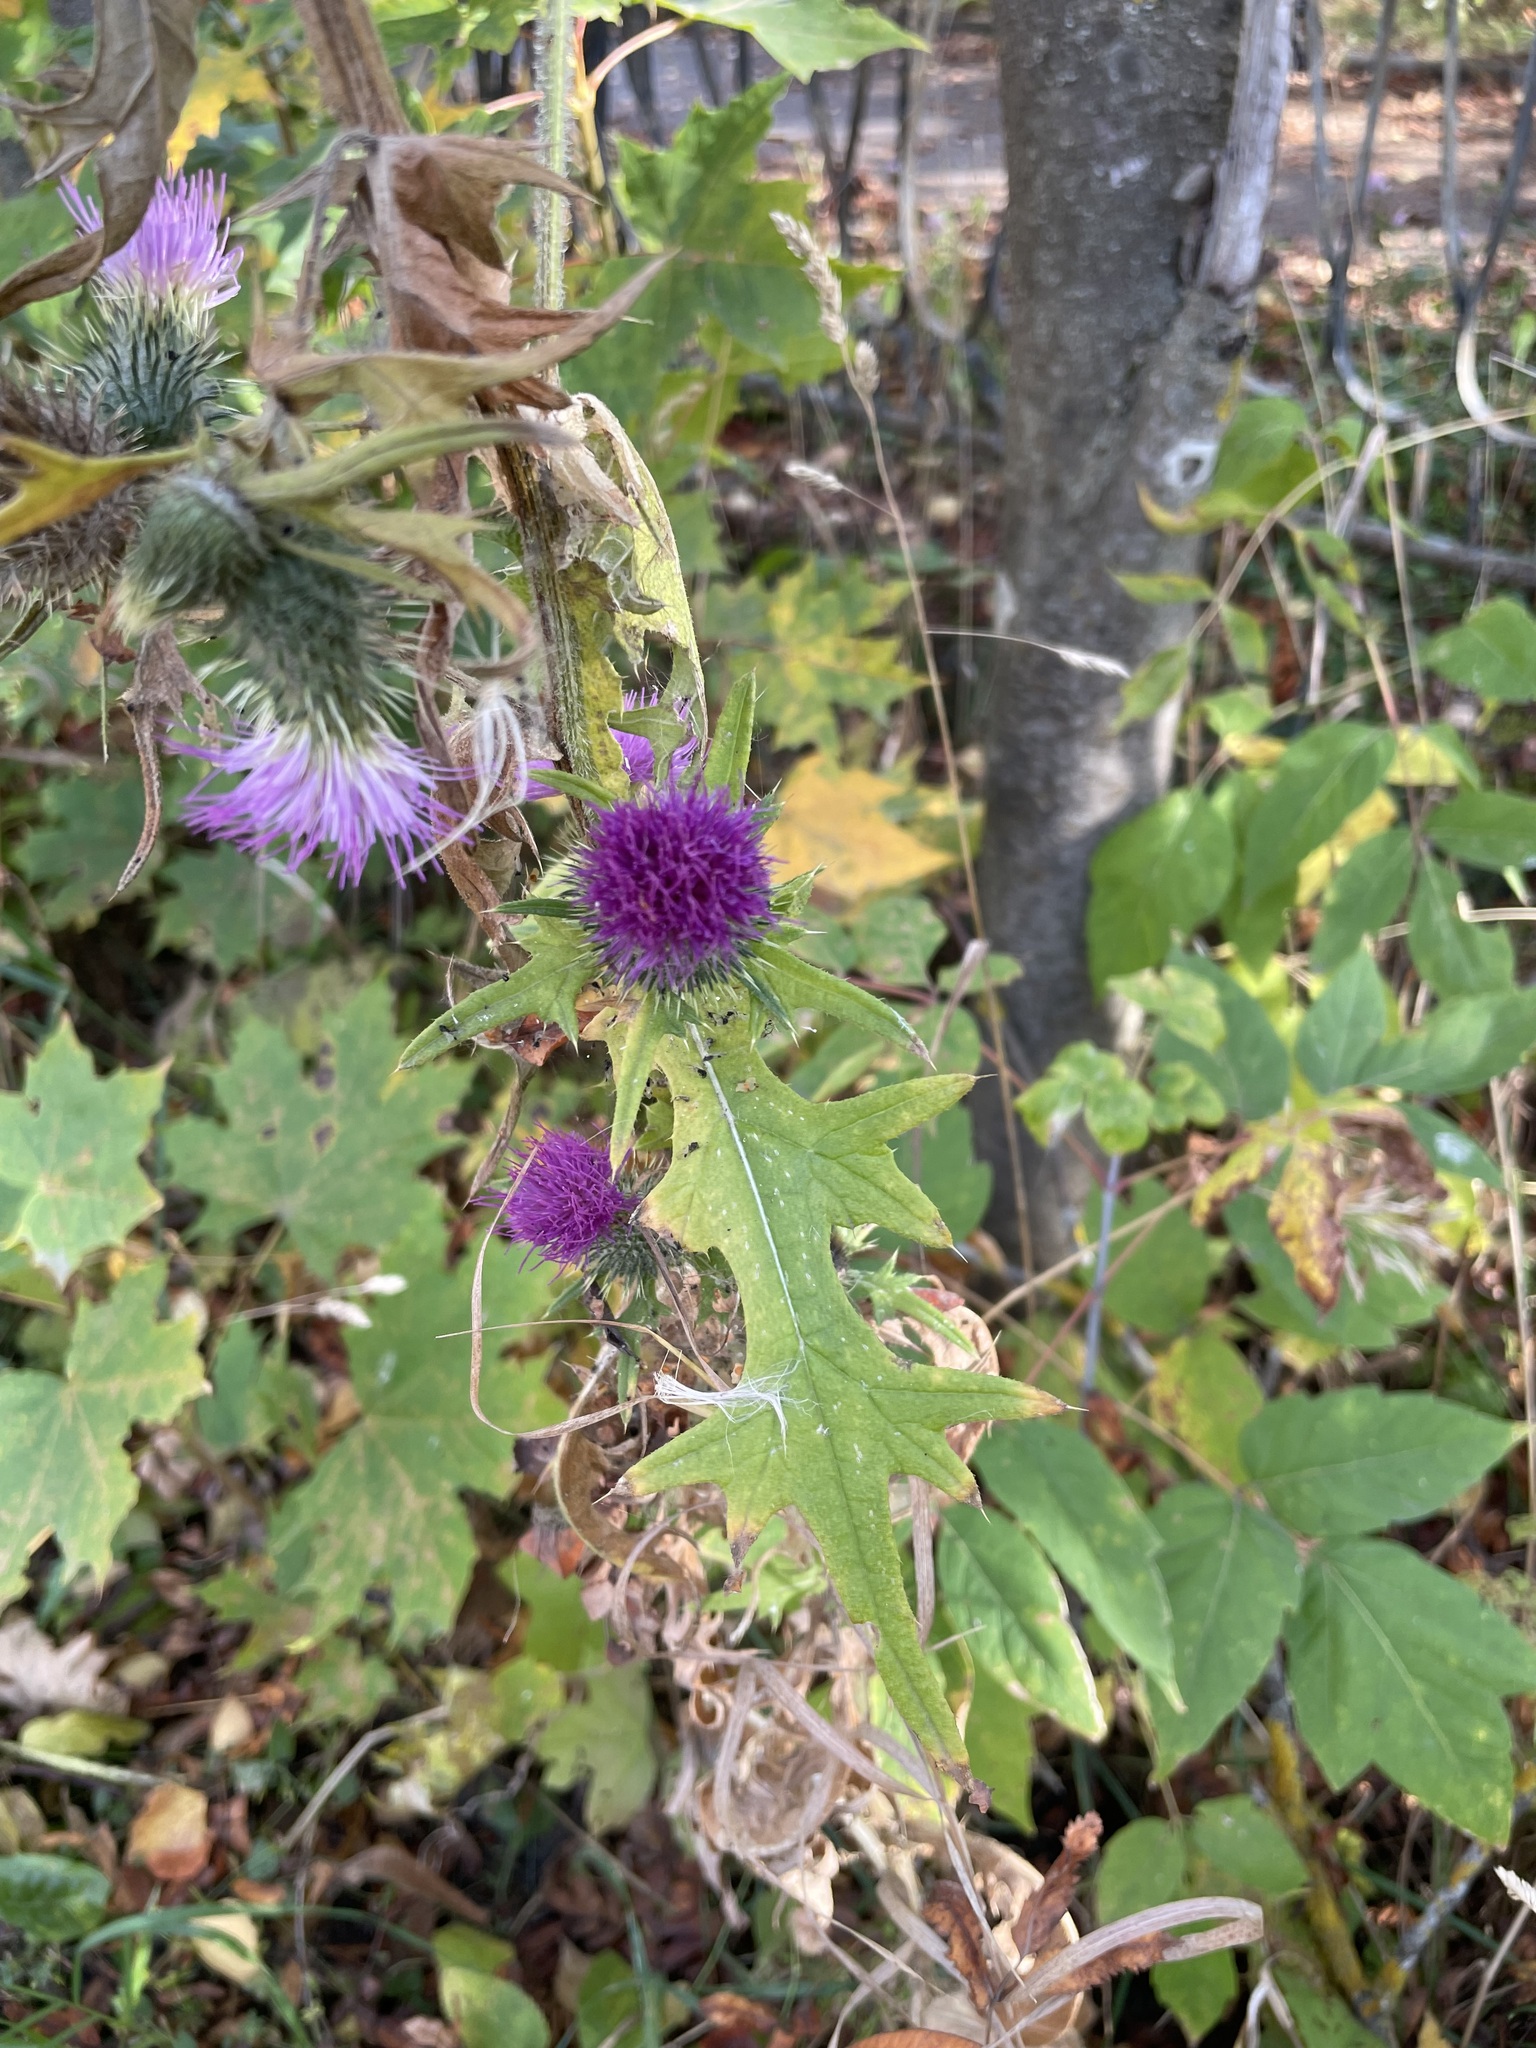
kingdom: Plantae
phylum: Tracheophyta
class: Magnoliopsida
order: Asterales
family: Asteraceae
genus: Cirsium
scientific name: Cirsium vulgare
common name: Bull thistle
